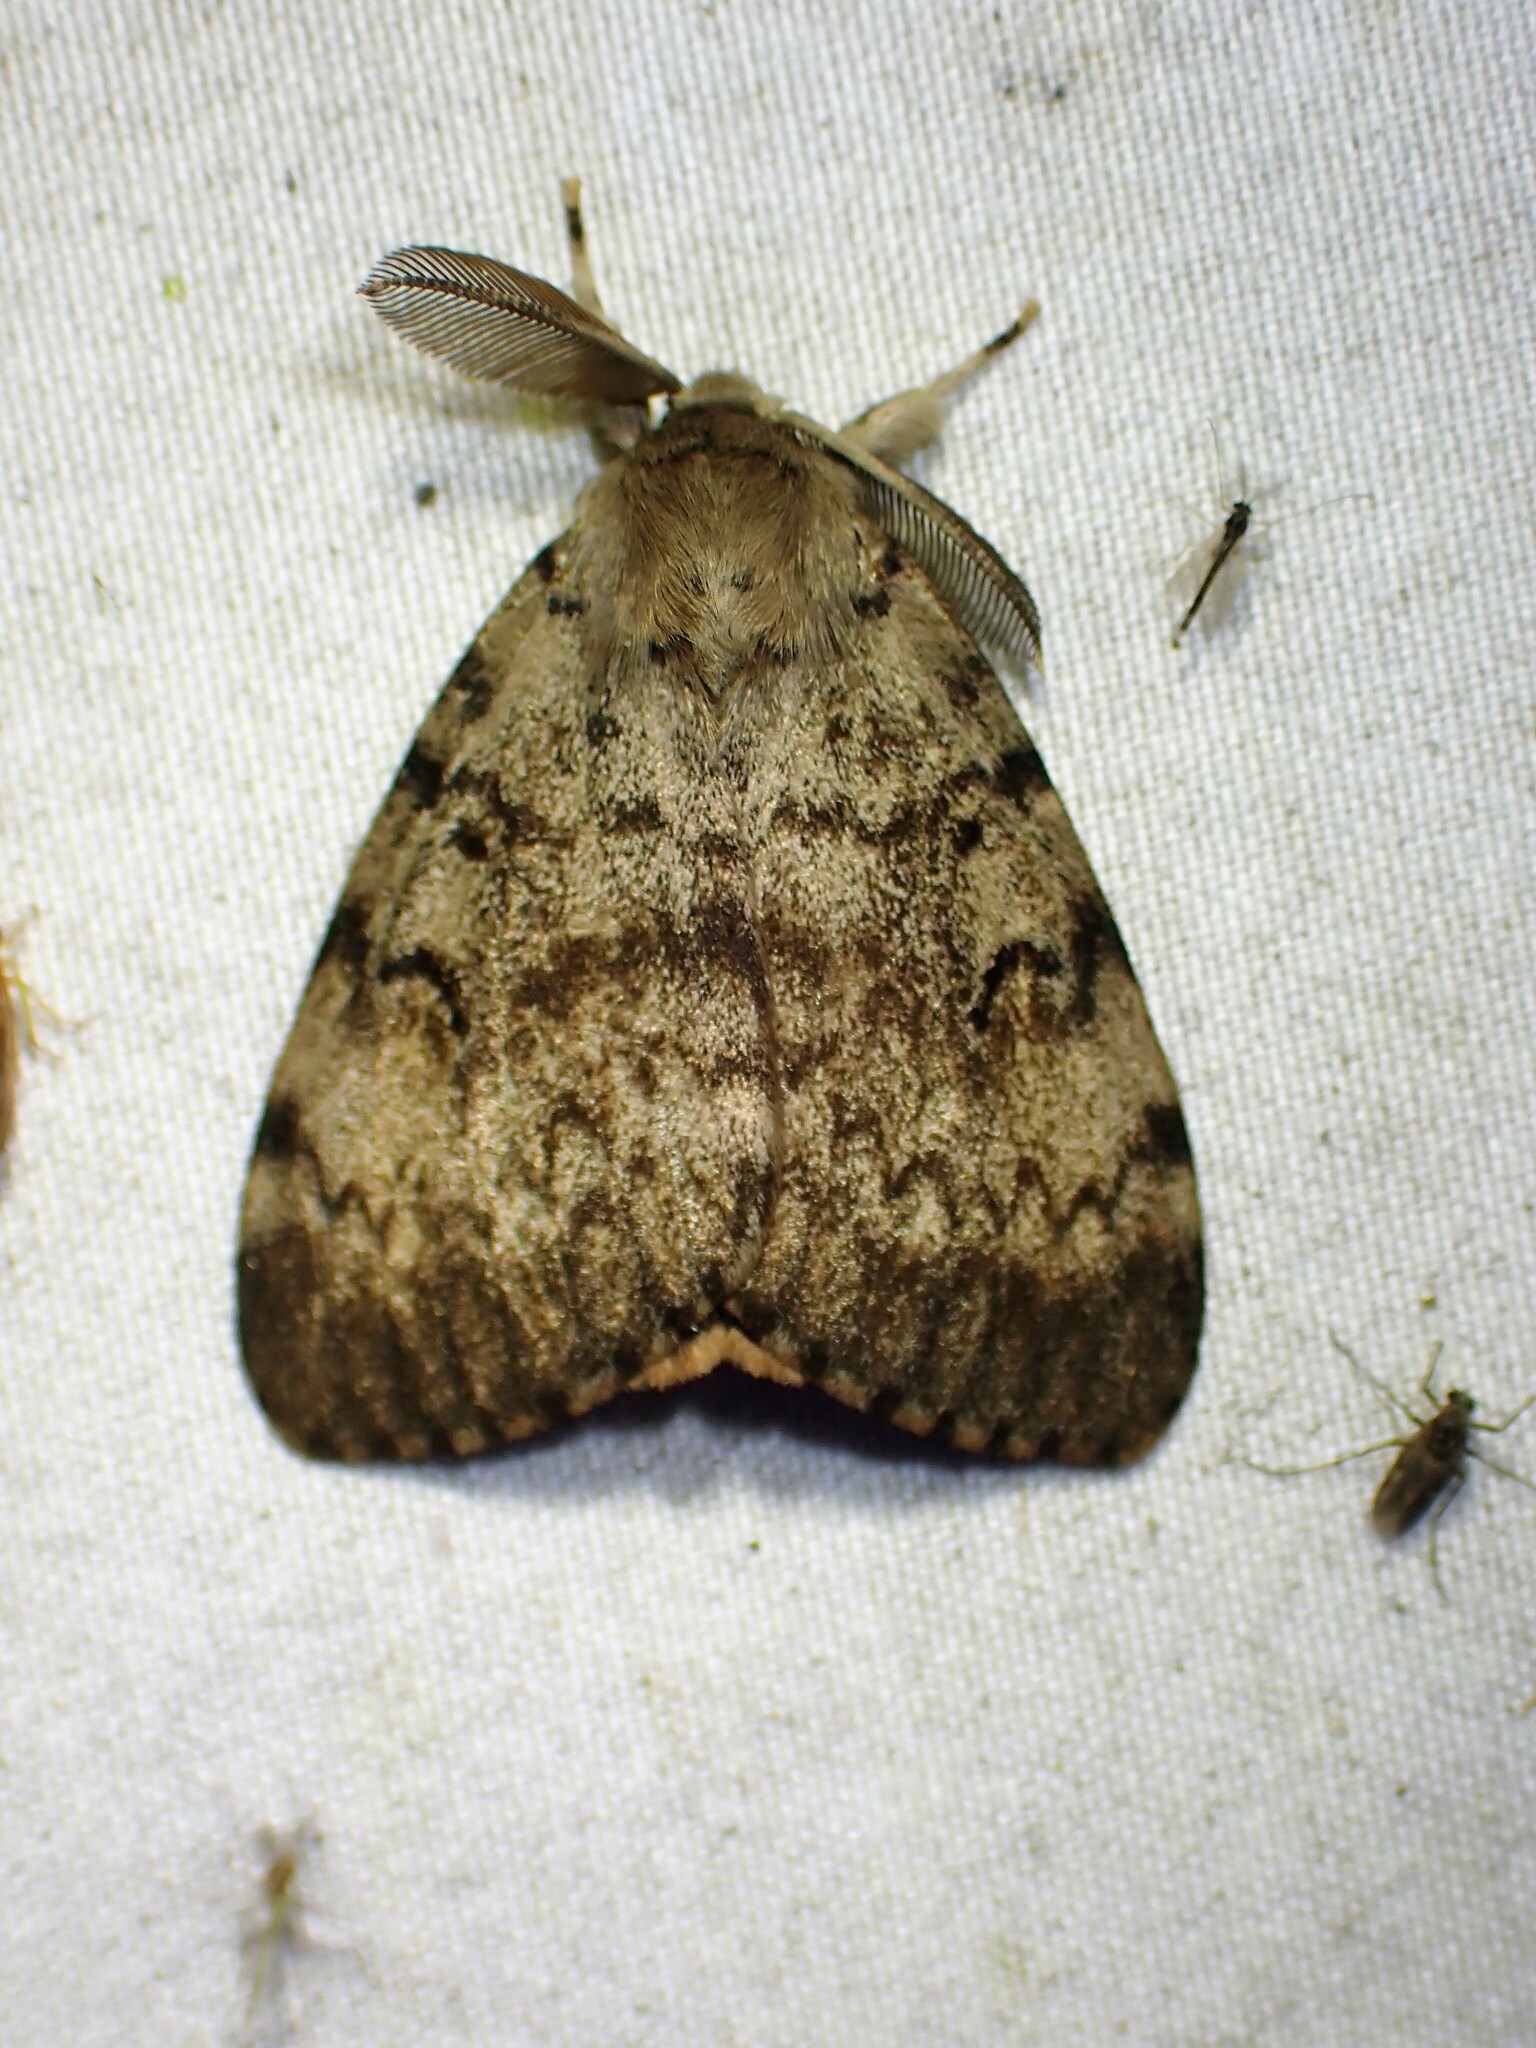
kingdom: Animalia
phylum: Arthropoda
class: Insecta
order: Lepidoptera
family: Erebidae
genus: Lymantria
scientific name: Lymantria dispar
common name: Gypsy moth
